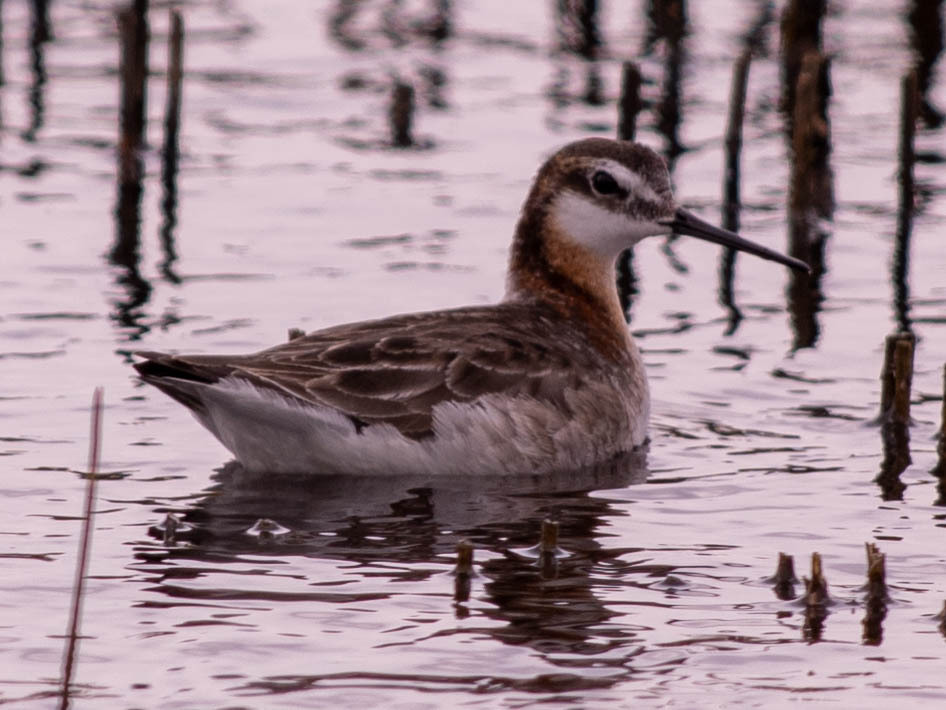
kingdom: Animalia
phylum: Chordata
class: Aves
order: Charadriiformes
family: Scolopacidae
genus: Phalaropus
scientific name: Phalaropus tricolor
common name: Wilson's phalarope
